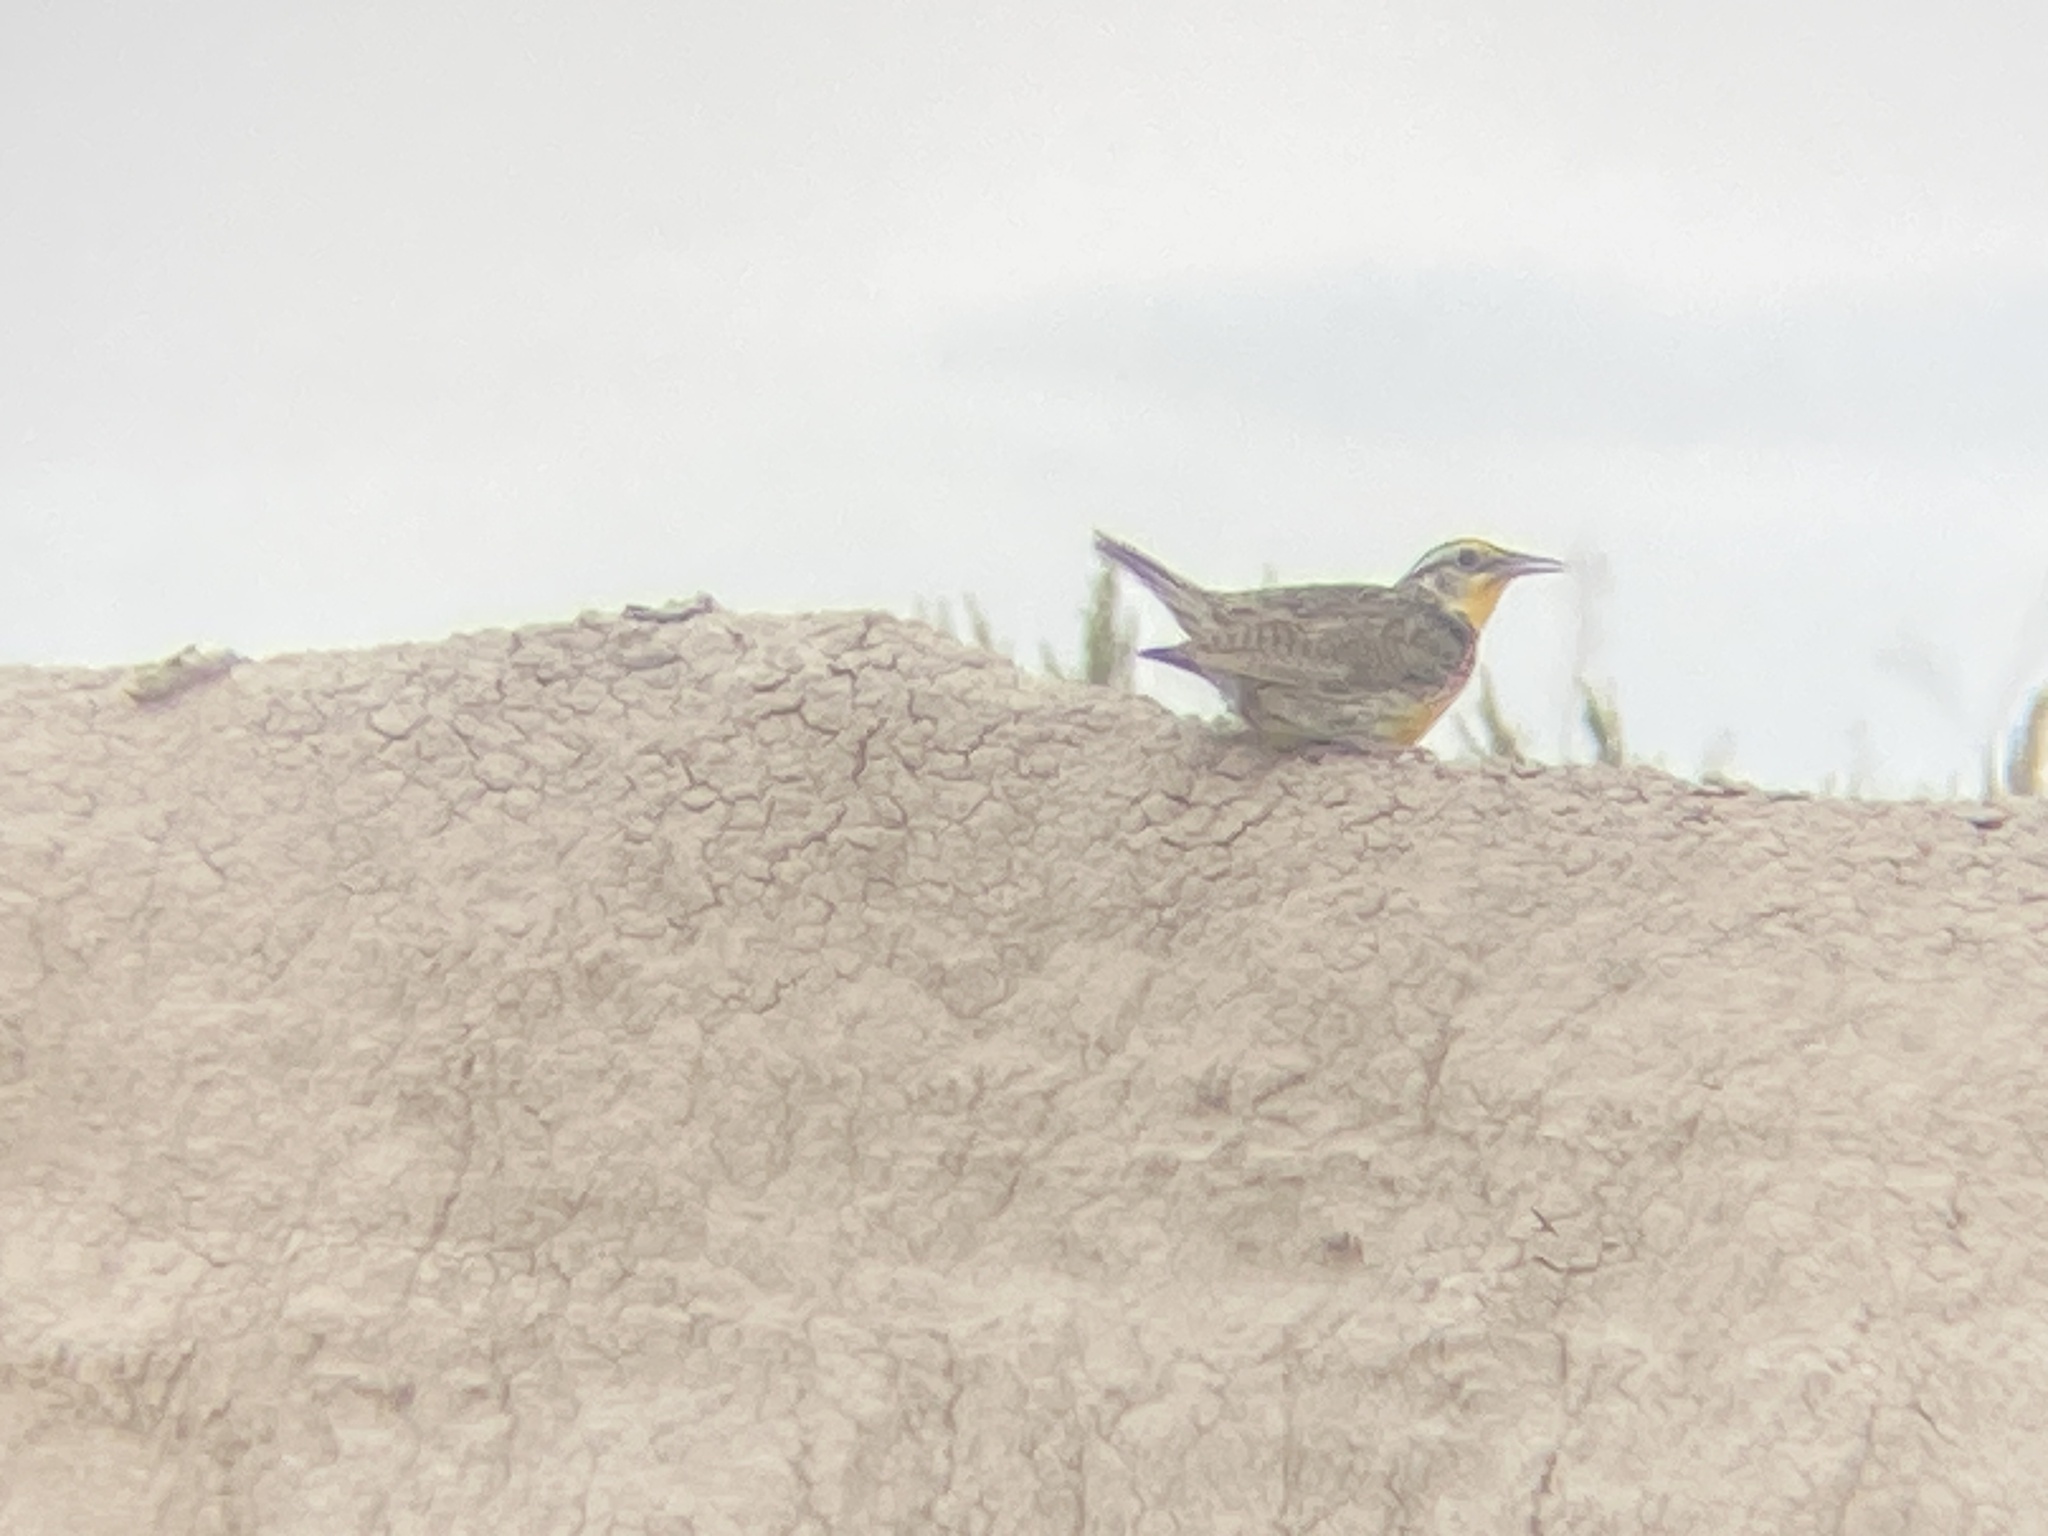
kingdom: Animalia
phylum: Chordata
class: Aves
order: Passeriformes
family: Icteridae
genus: Sturnella
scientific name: Sturnella neglecta
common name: Western meadowlark
